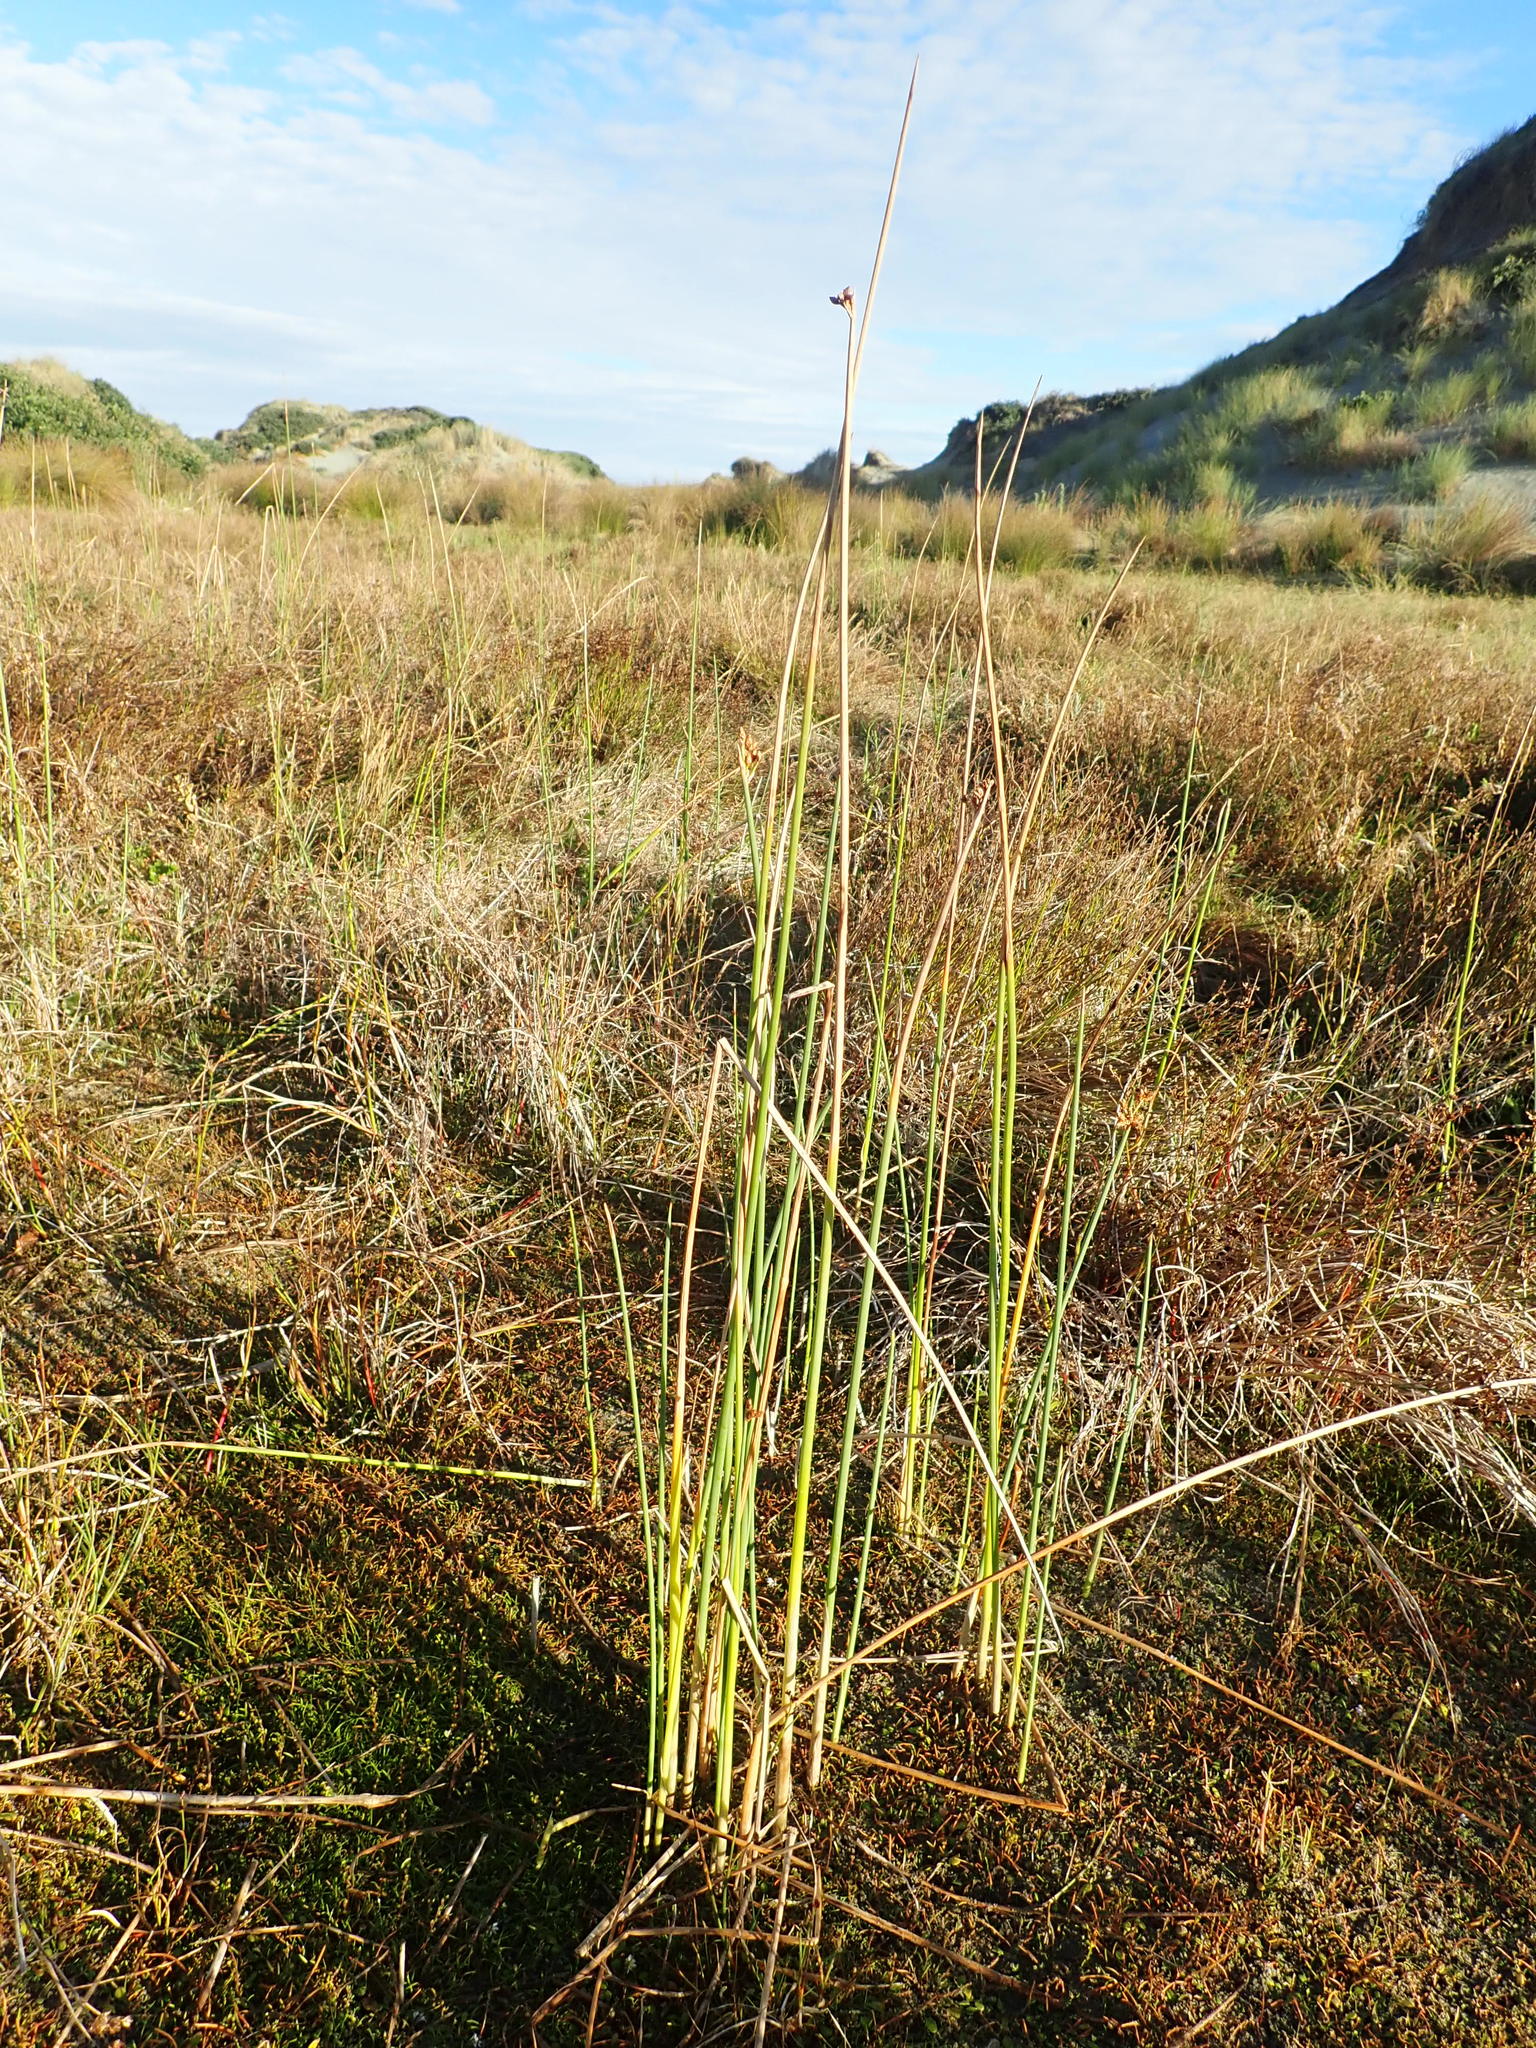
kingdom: Plantae
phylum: Tracheophyta
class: Liliopsida
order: Poales
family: Cyperaceae
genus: Schoenoplectus
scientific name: Schoenoplectus tabernaemontani
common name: Grey club-rush
